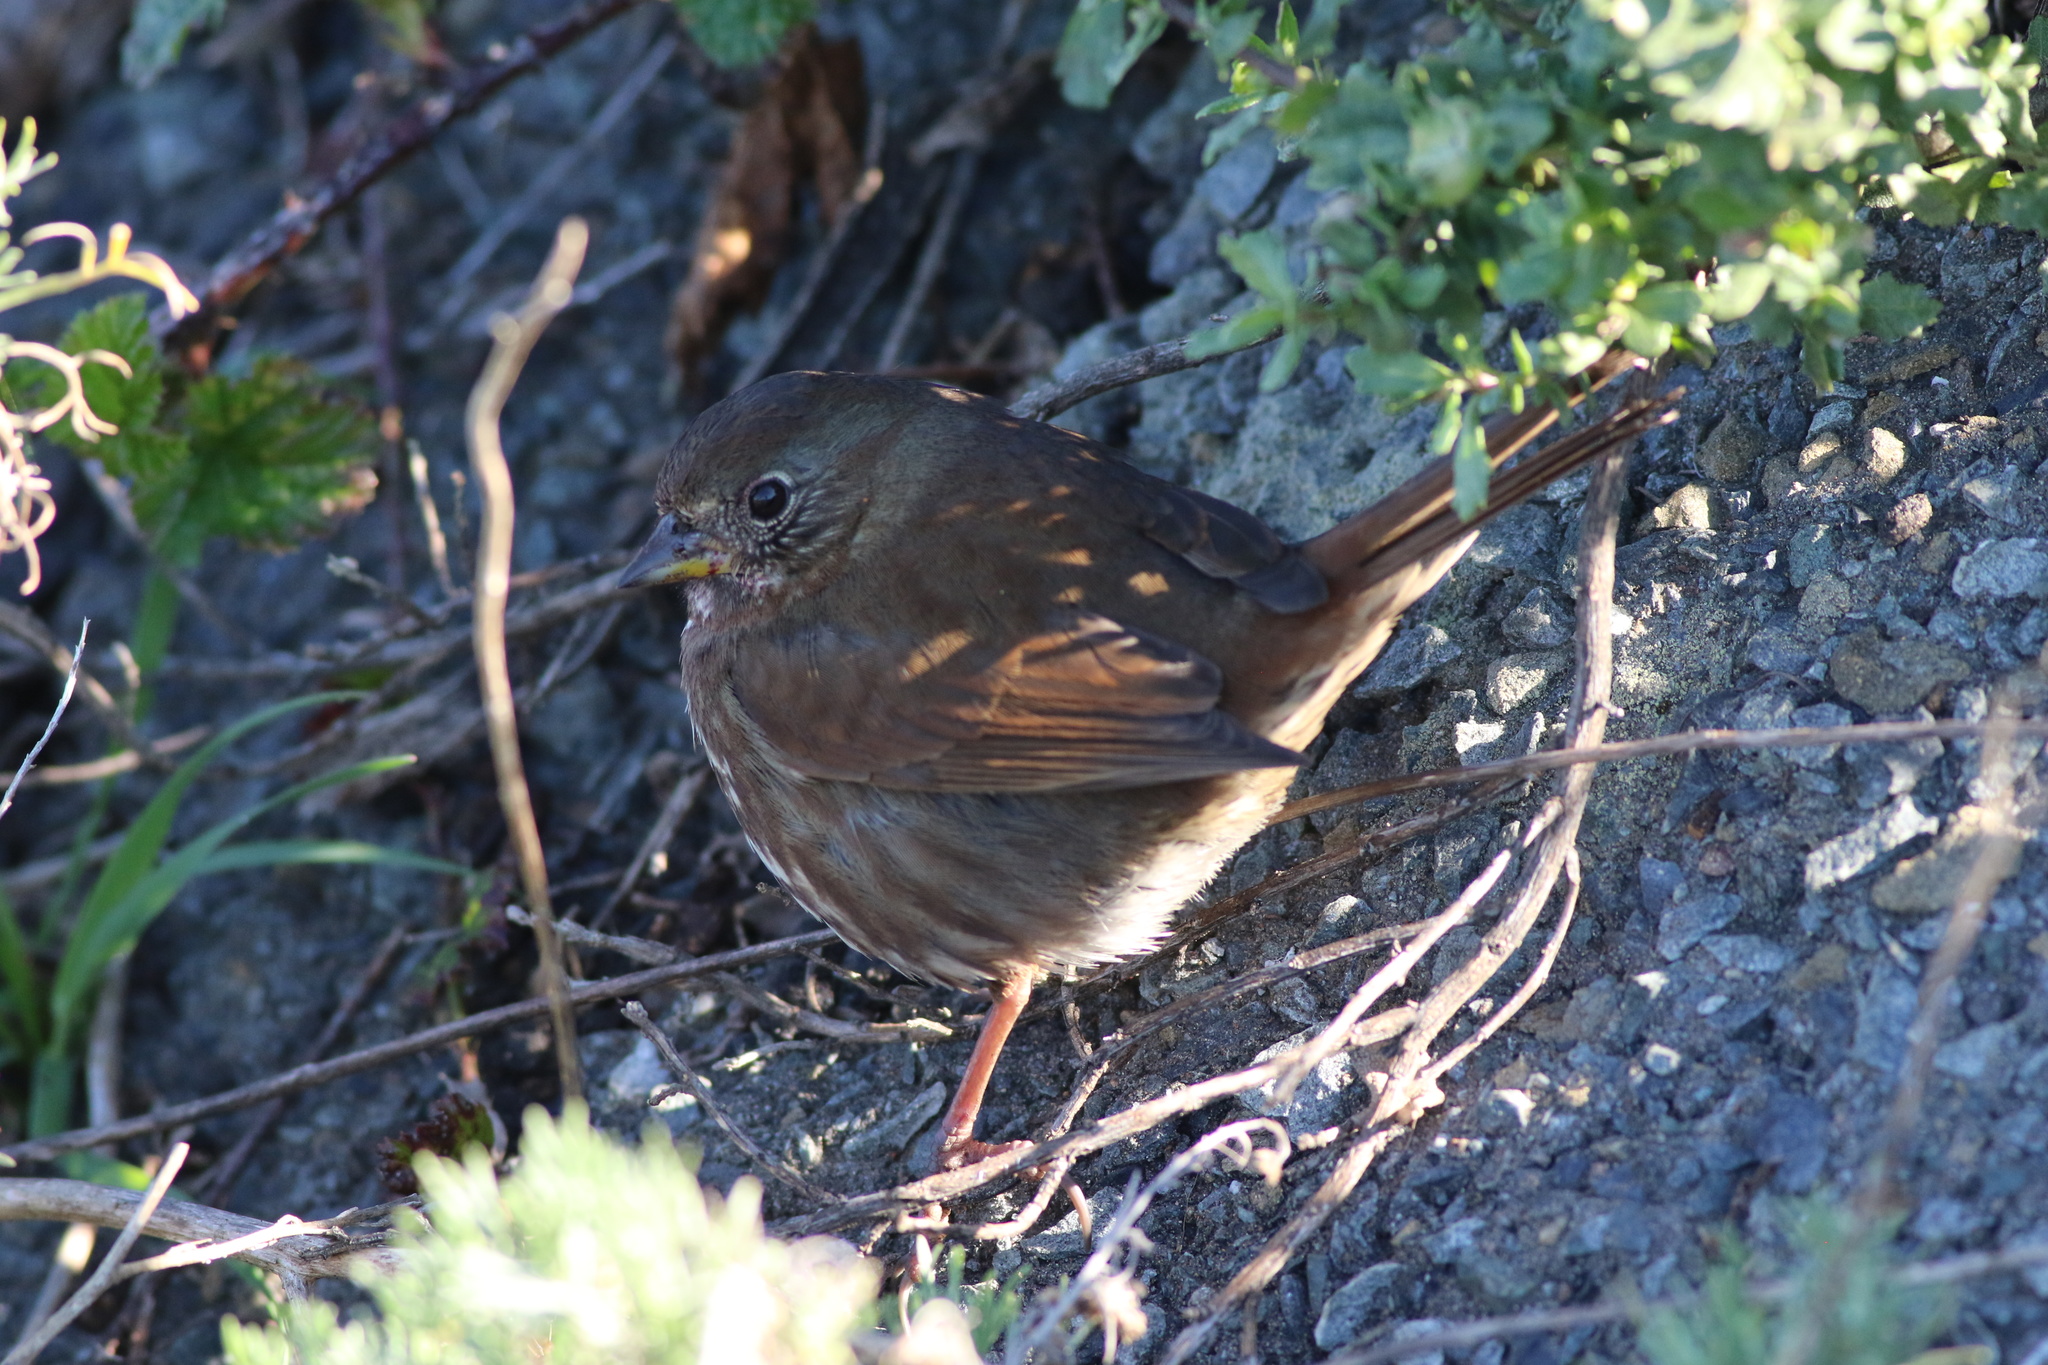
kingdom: Animalia
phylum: Chordata
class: Aves
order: Passeriformes
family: Passerellidae
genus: Passerella
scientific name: Passerella iliaca
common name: Fox sparrow
